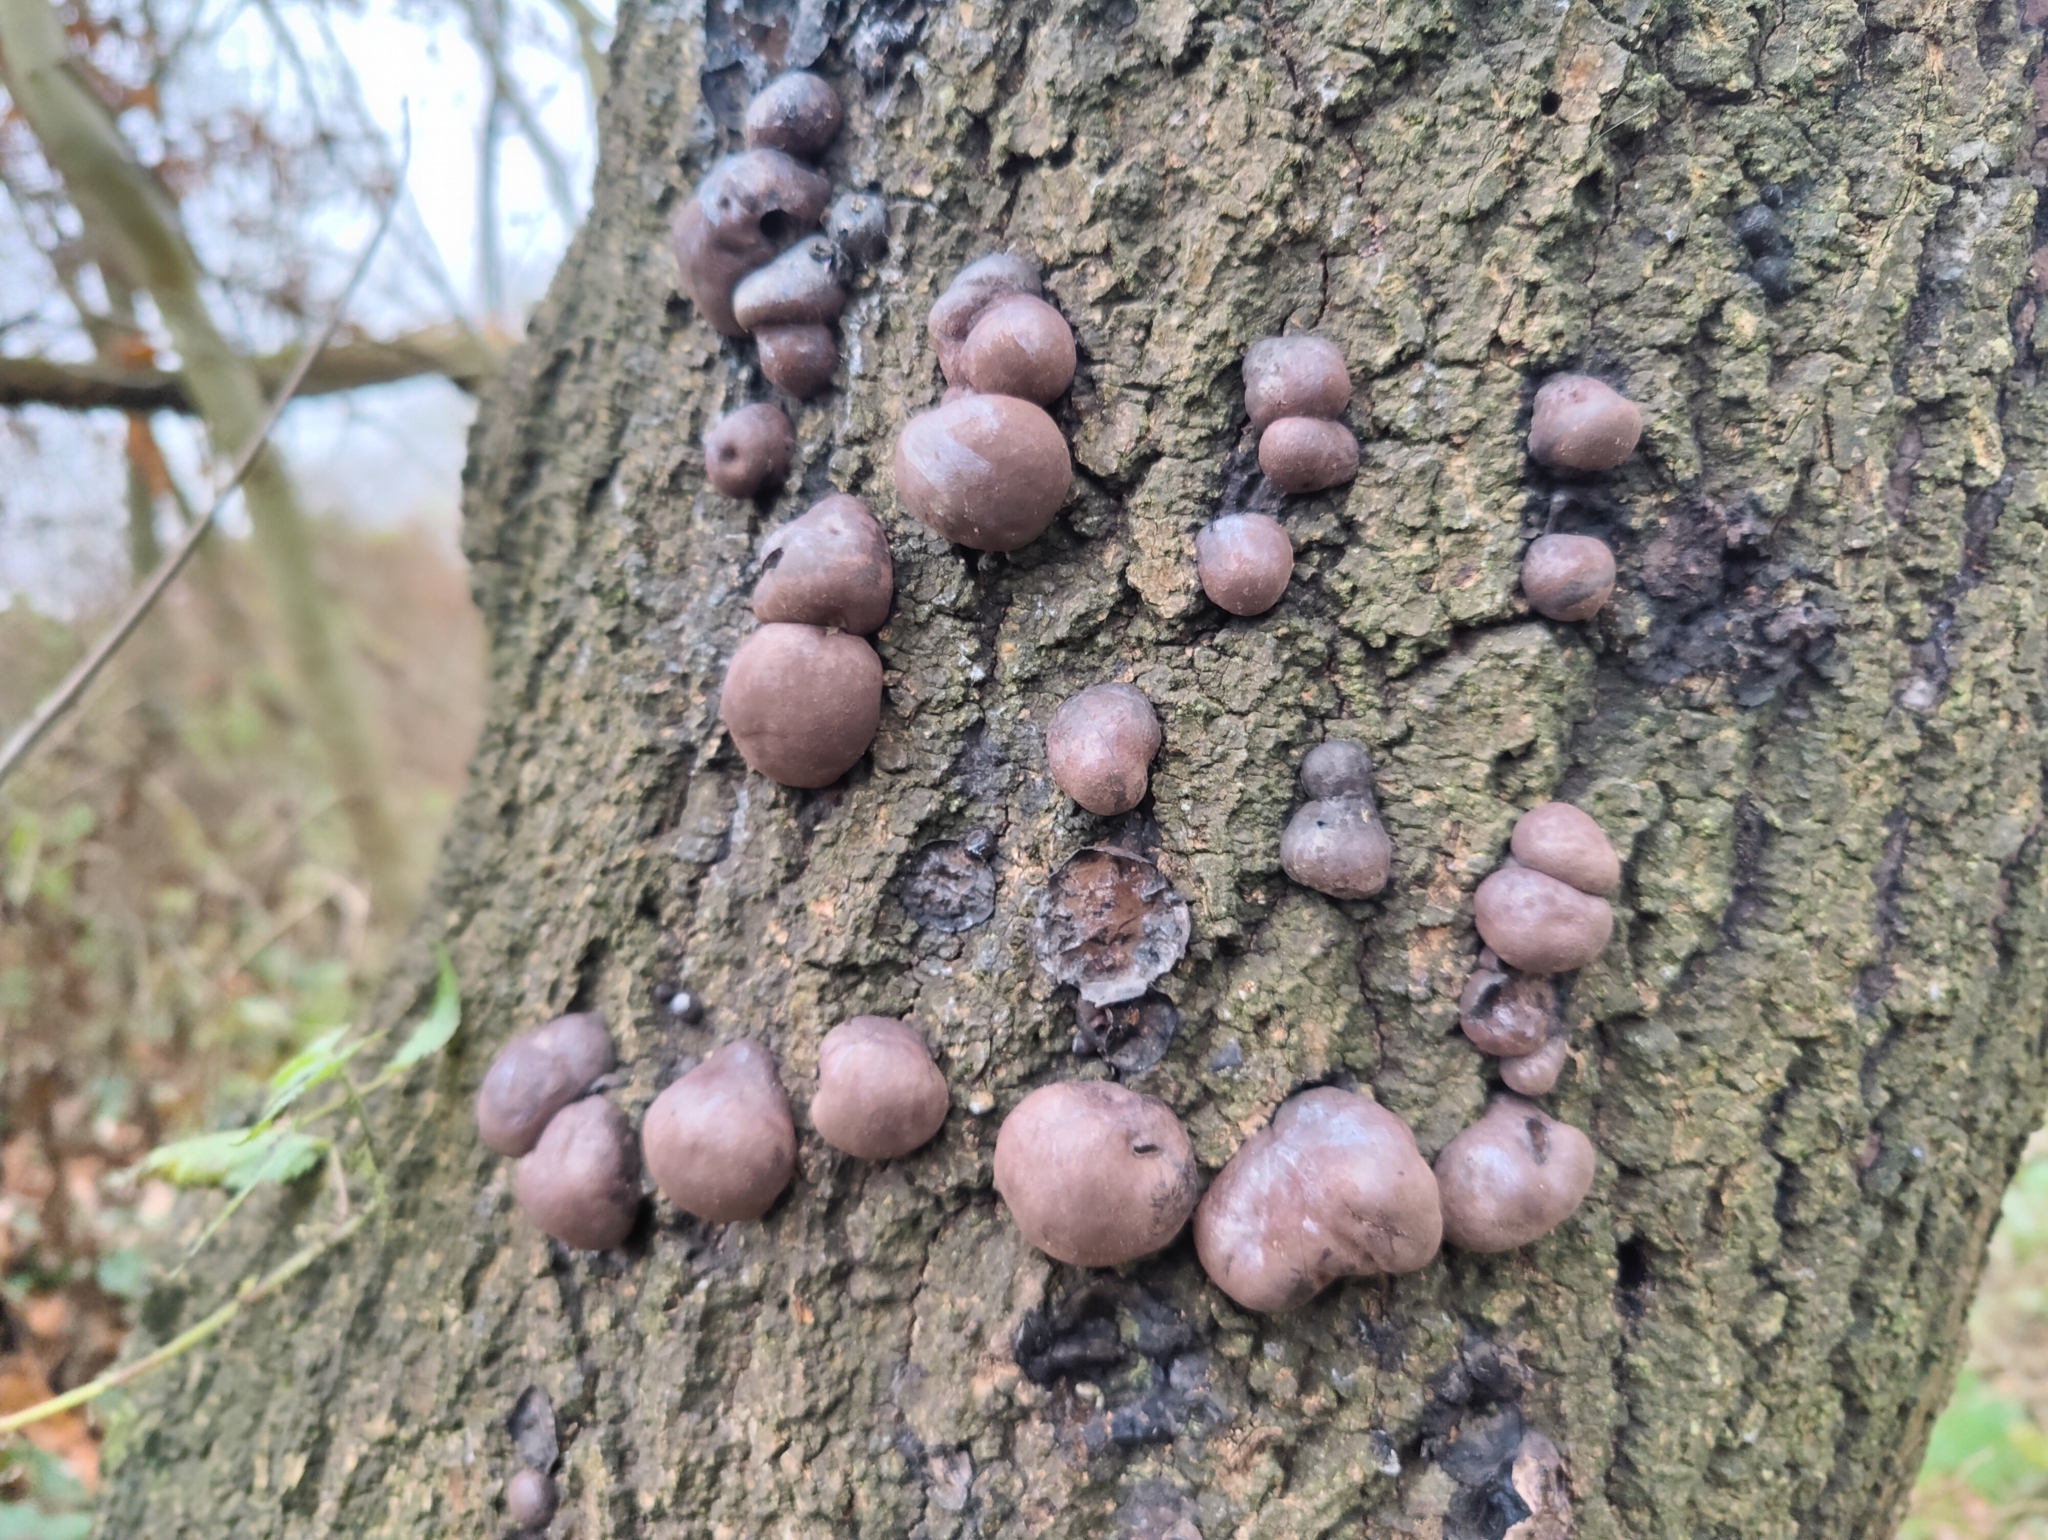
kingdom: Fungi
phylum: Ascomycota
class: Sordariomycetes
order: Xylariales
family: Hypoxylaceae
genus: Daldinia
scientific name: Daldinia concentrica
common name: Cramp balls
